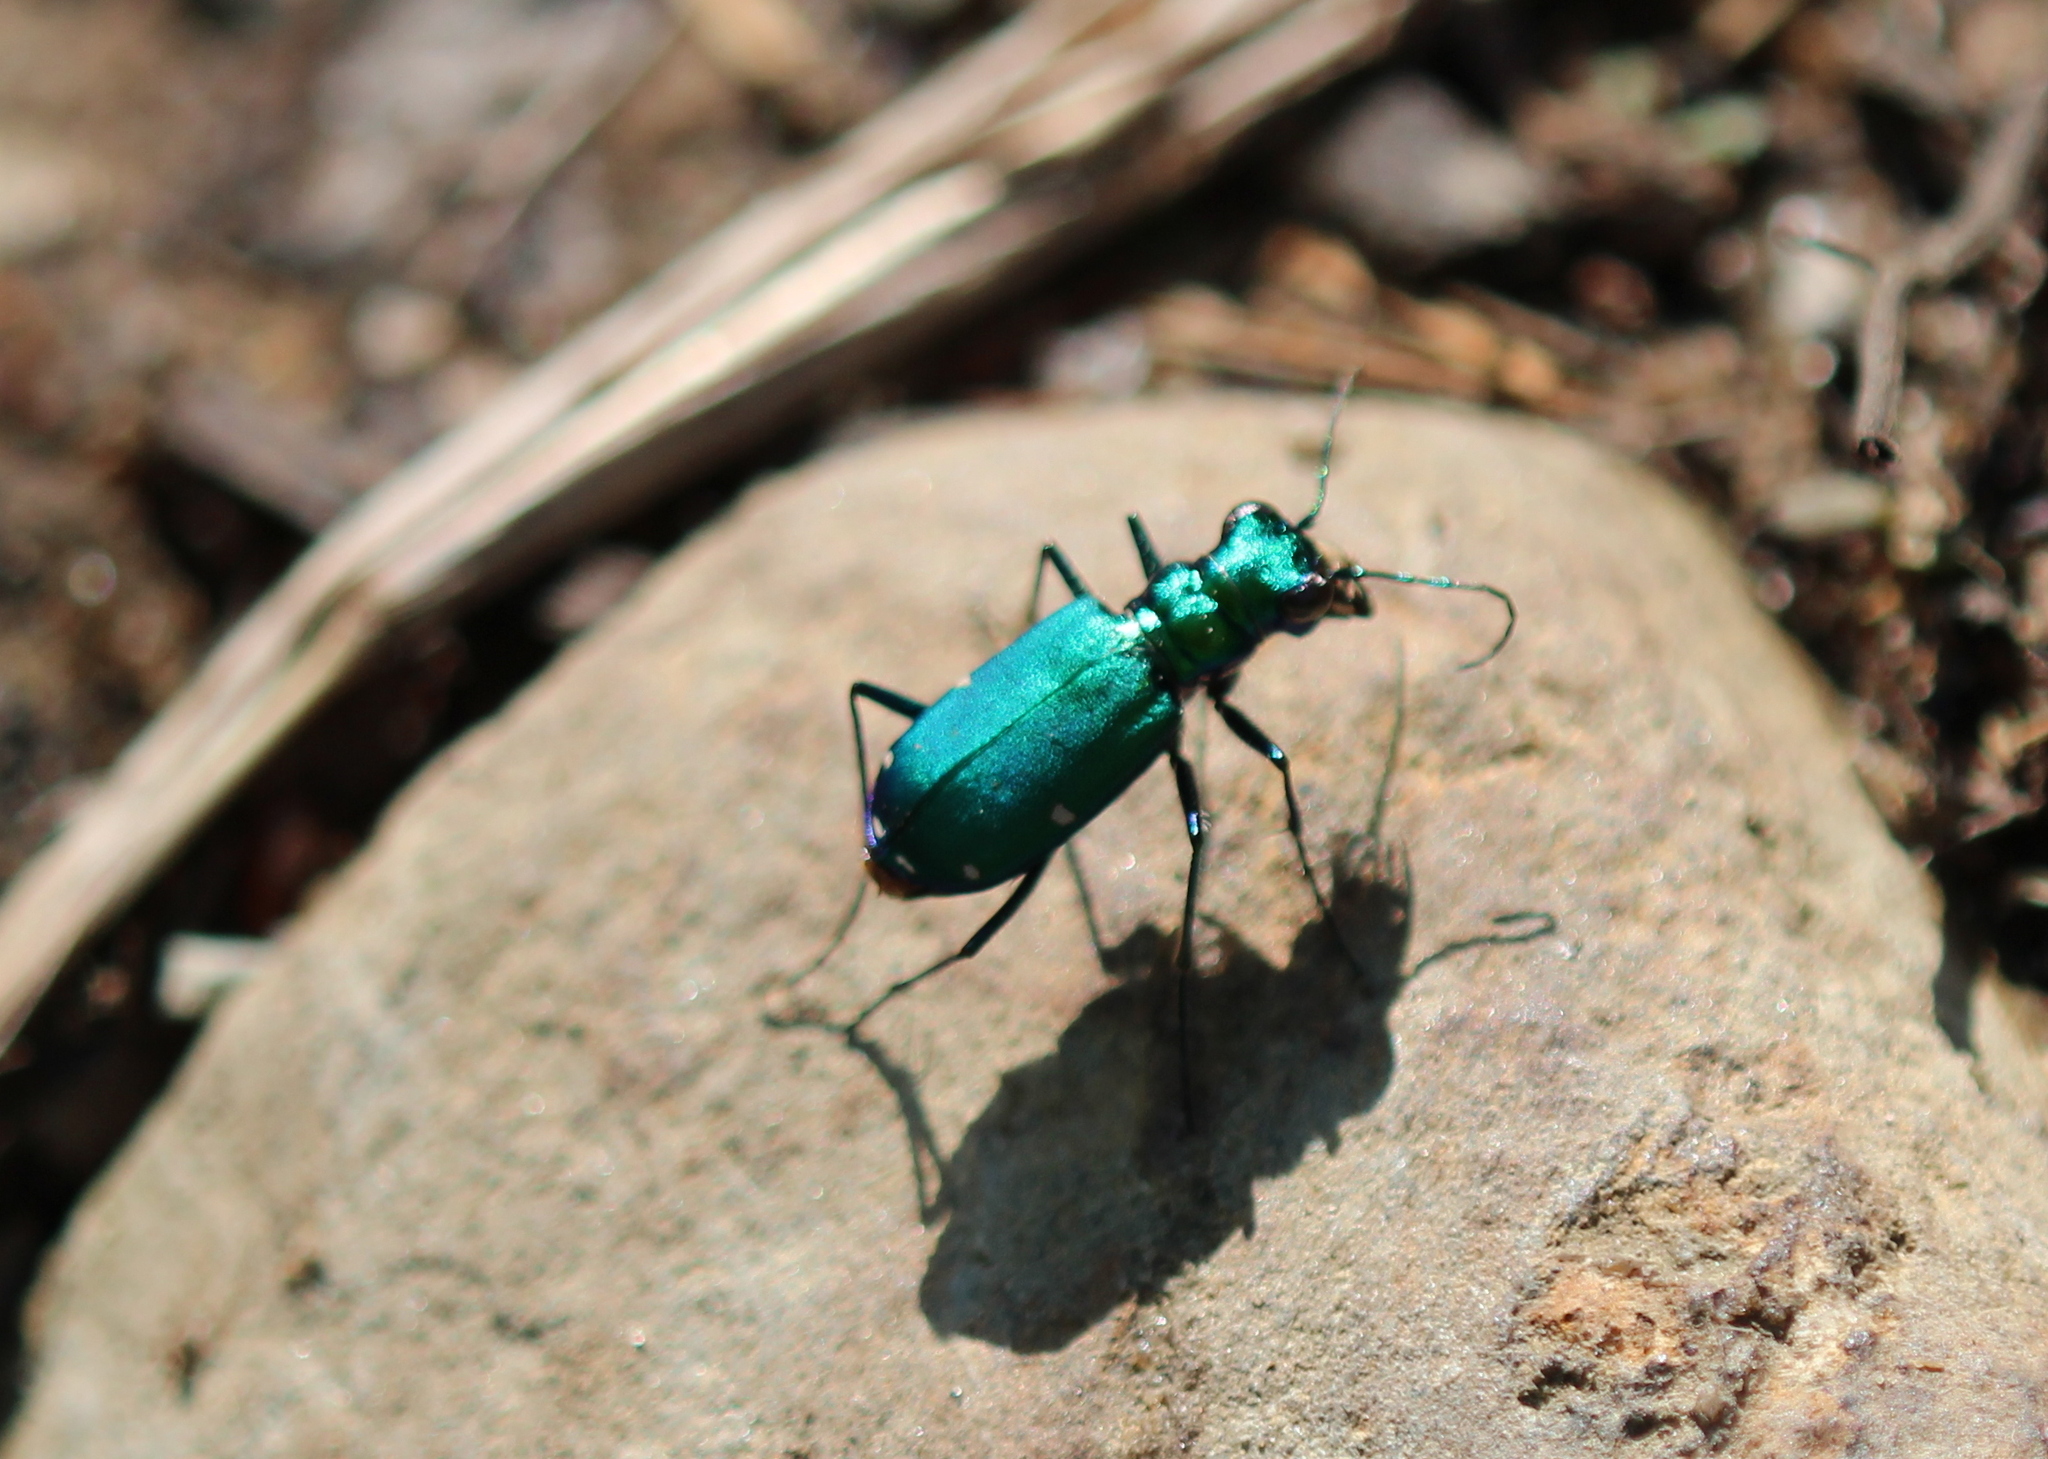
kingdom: Animalia
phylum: Arthropoda
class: Insecta
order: Coleoptera
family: Carabidae
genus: Cicindela
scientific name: Cicindela sexguttata
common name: Six-spotted tiger beetle
